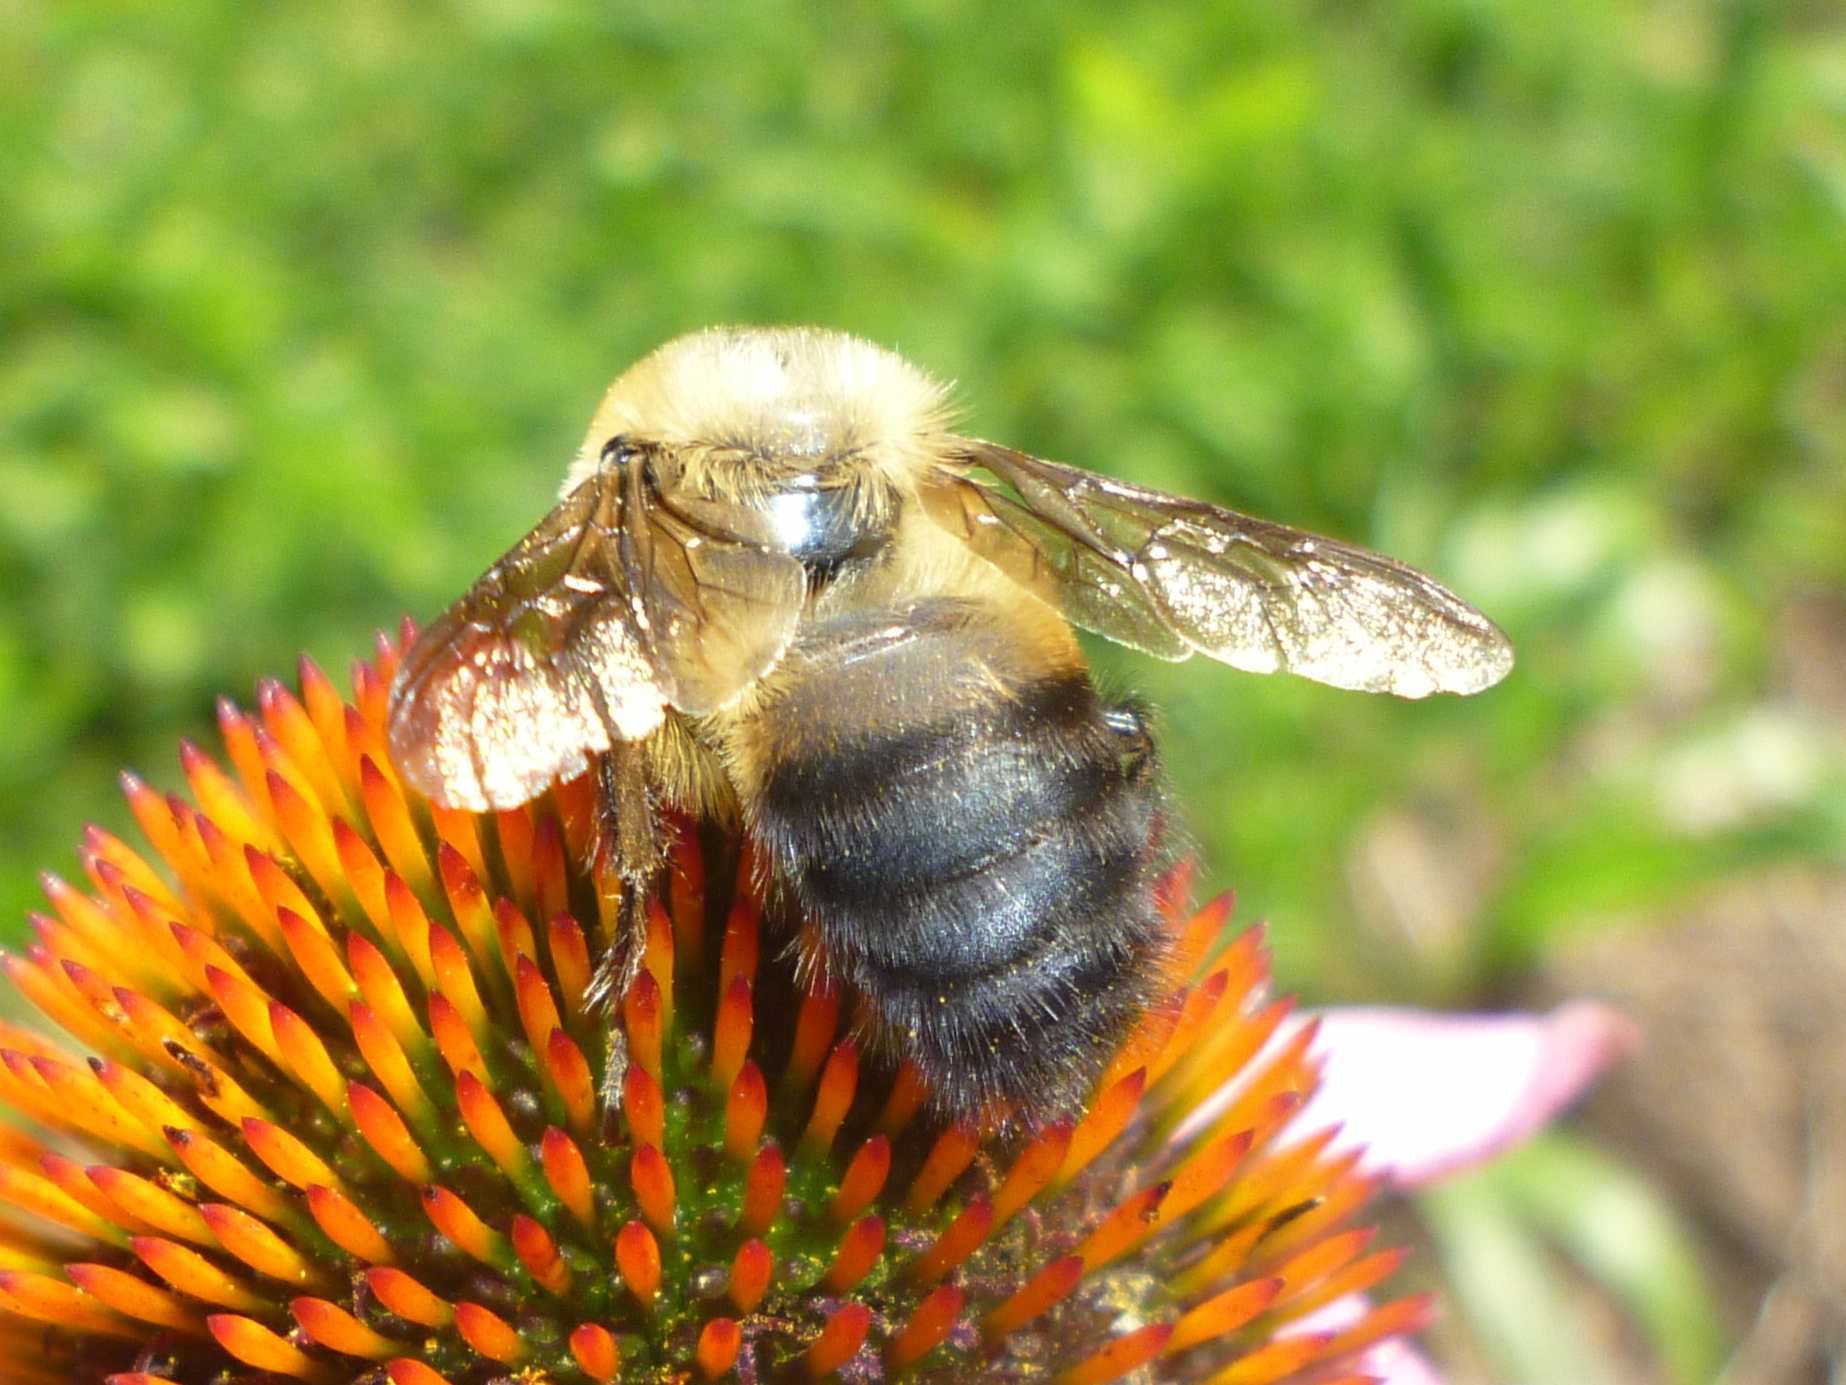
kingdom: Animalia
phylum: Arthropoda
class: Insecta
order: Hymenoptera
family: Apidae
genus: Bombus
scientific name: Bombus griseocollis
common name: Brown-belted bumble bee
